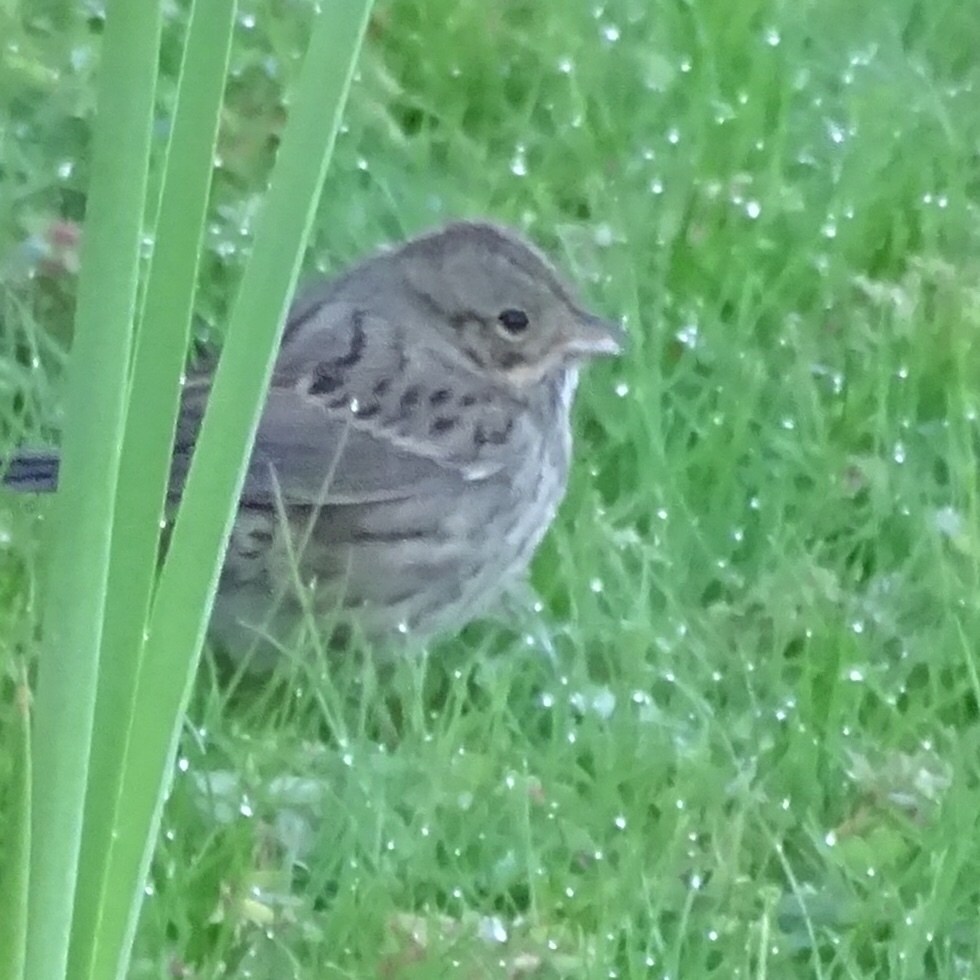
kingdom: Animalia
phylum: Chordata
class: Aves
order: Passeriformes
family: Passerellidae
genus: Melospiza
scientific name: Melospiza lincolnii
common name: Lincoln's sparrow
